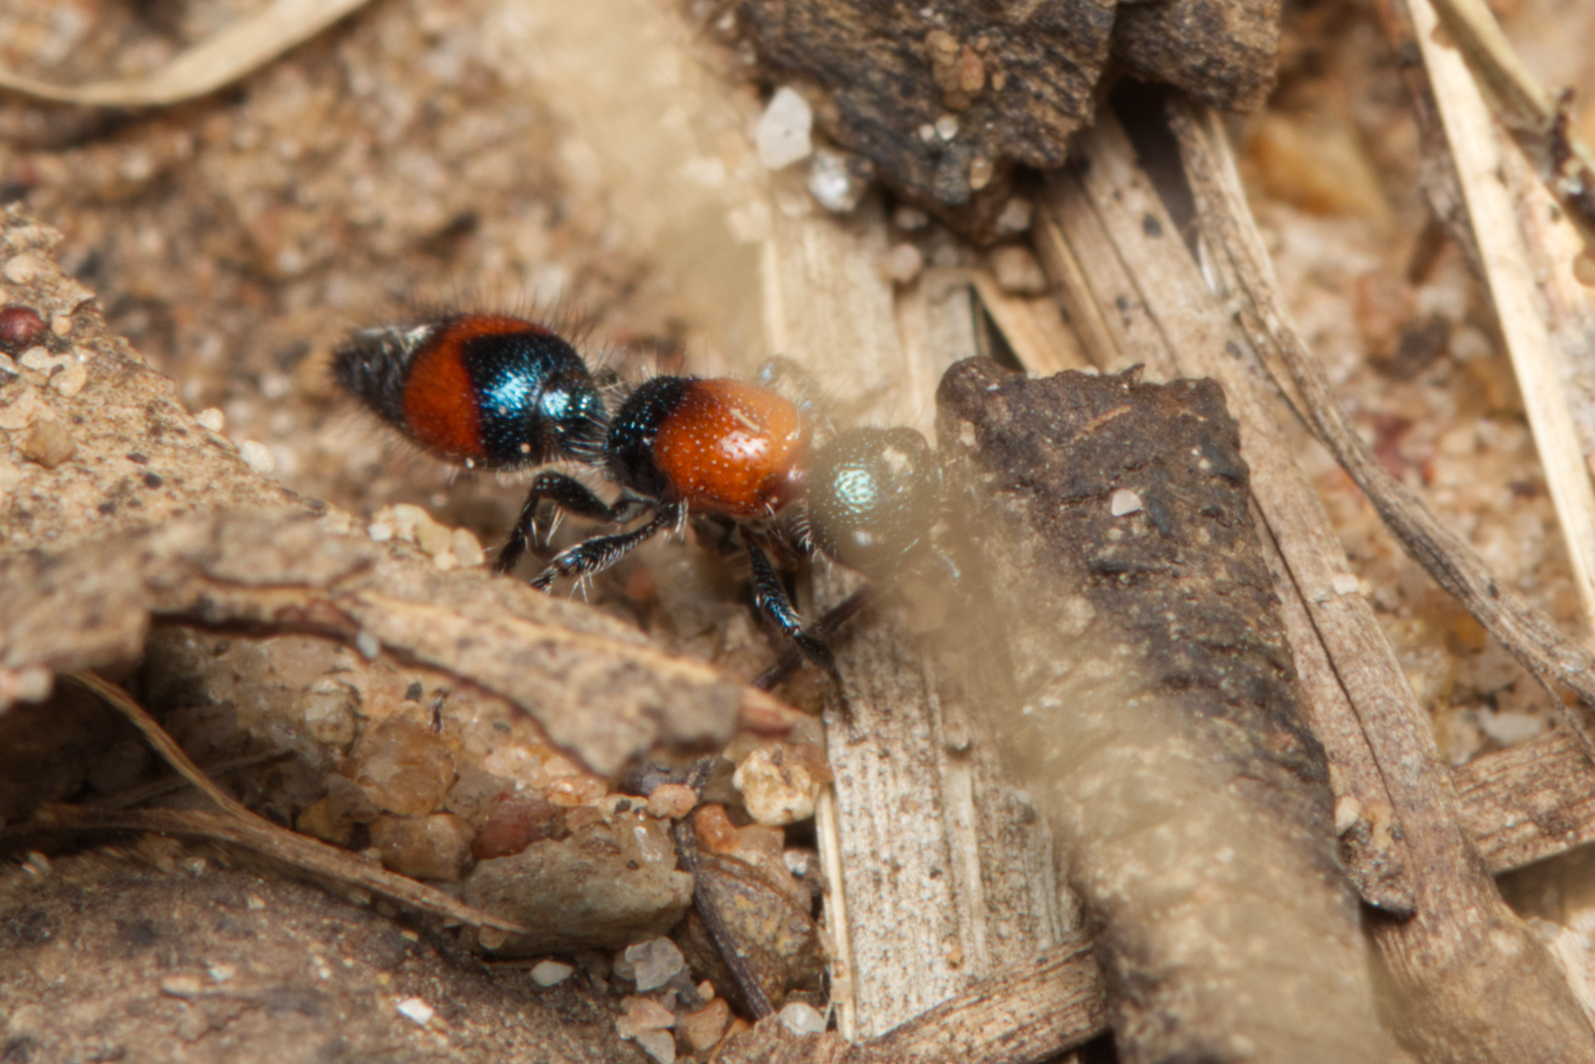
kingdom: Animalia
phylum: Arthropoda
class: Insecta
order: Hymenoptera
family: Mutillidae
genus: Ephutomorpha
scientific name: Ephutomorpha
